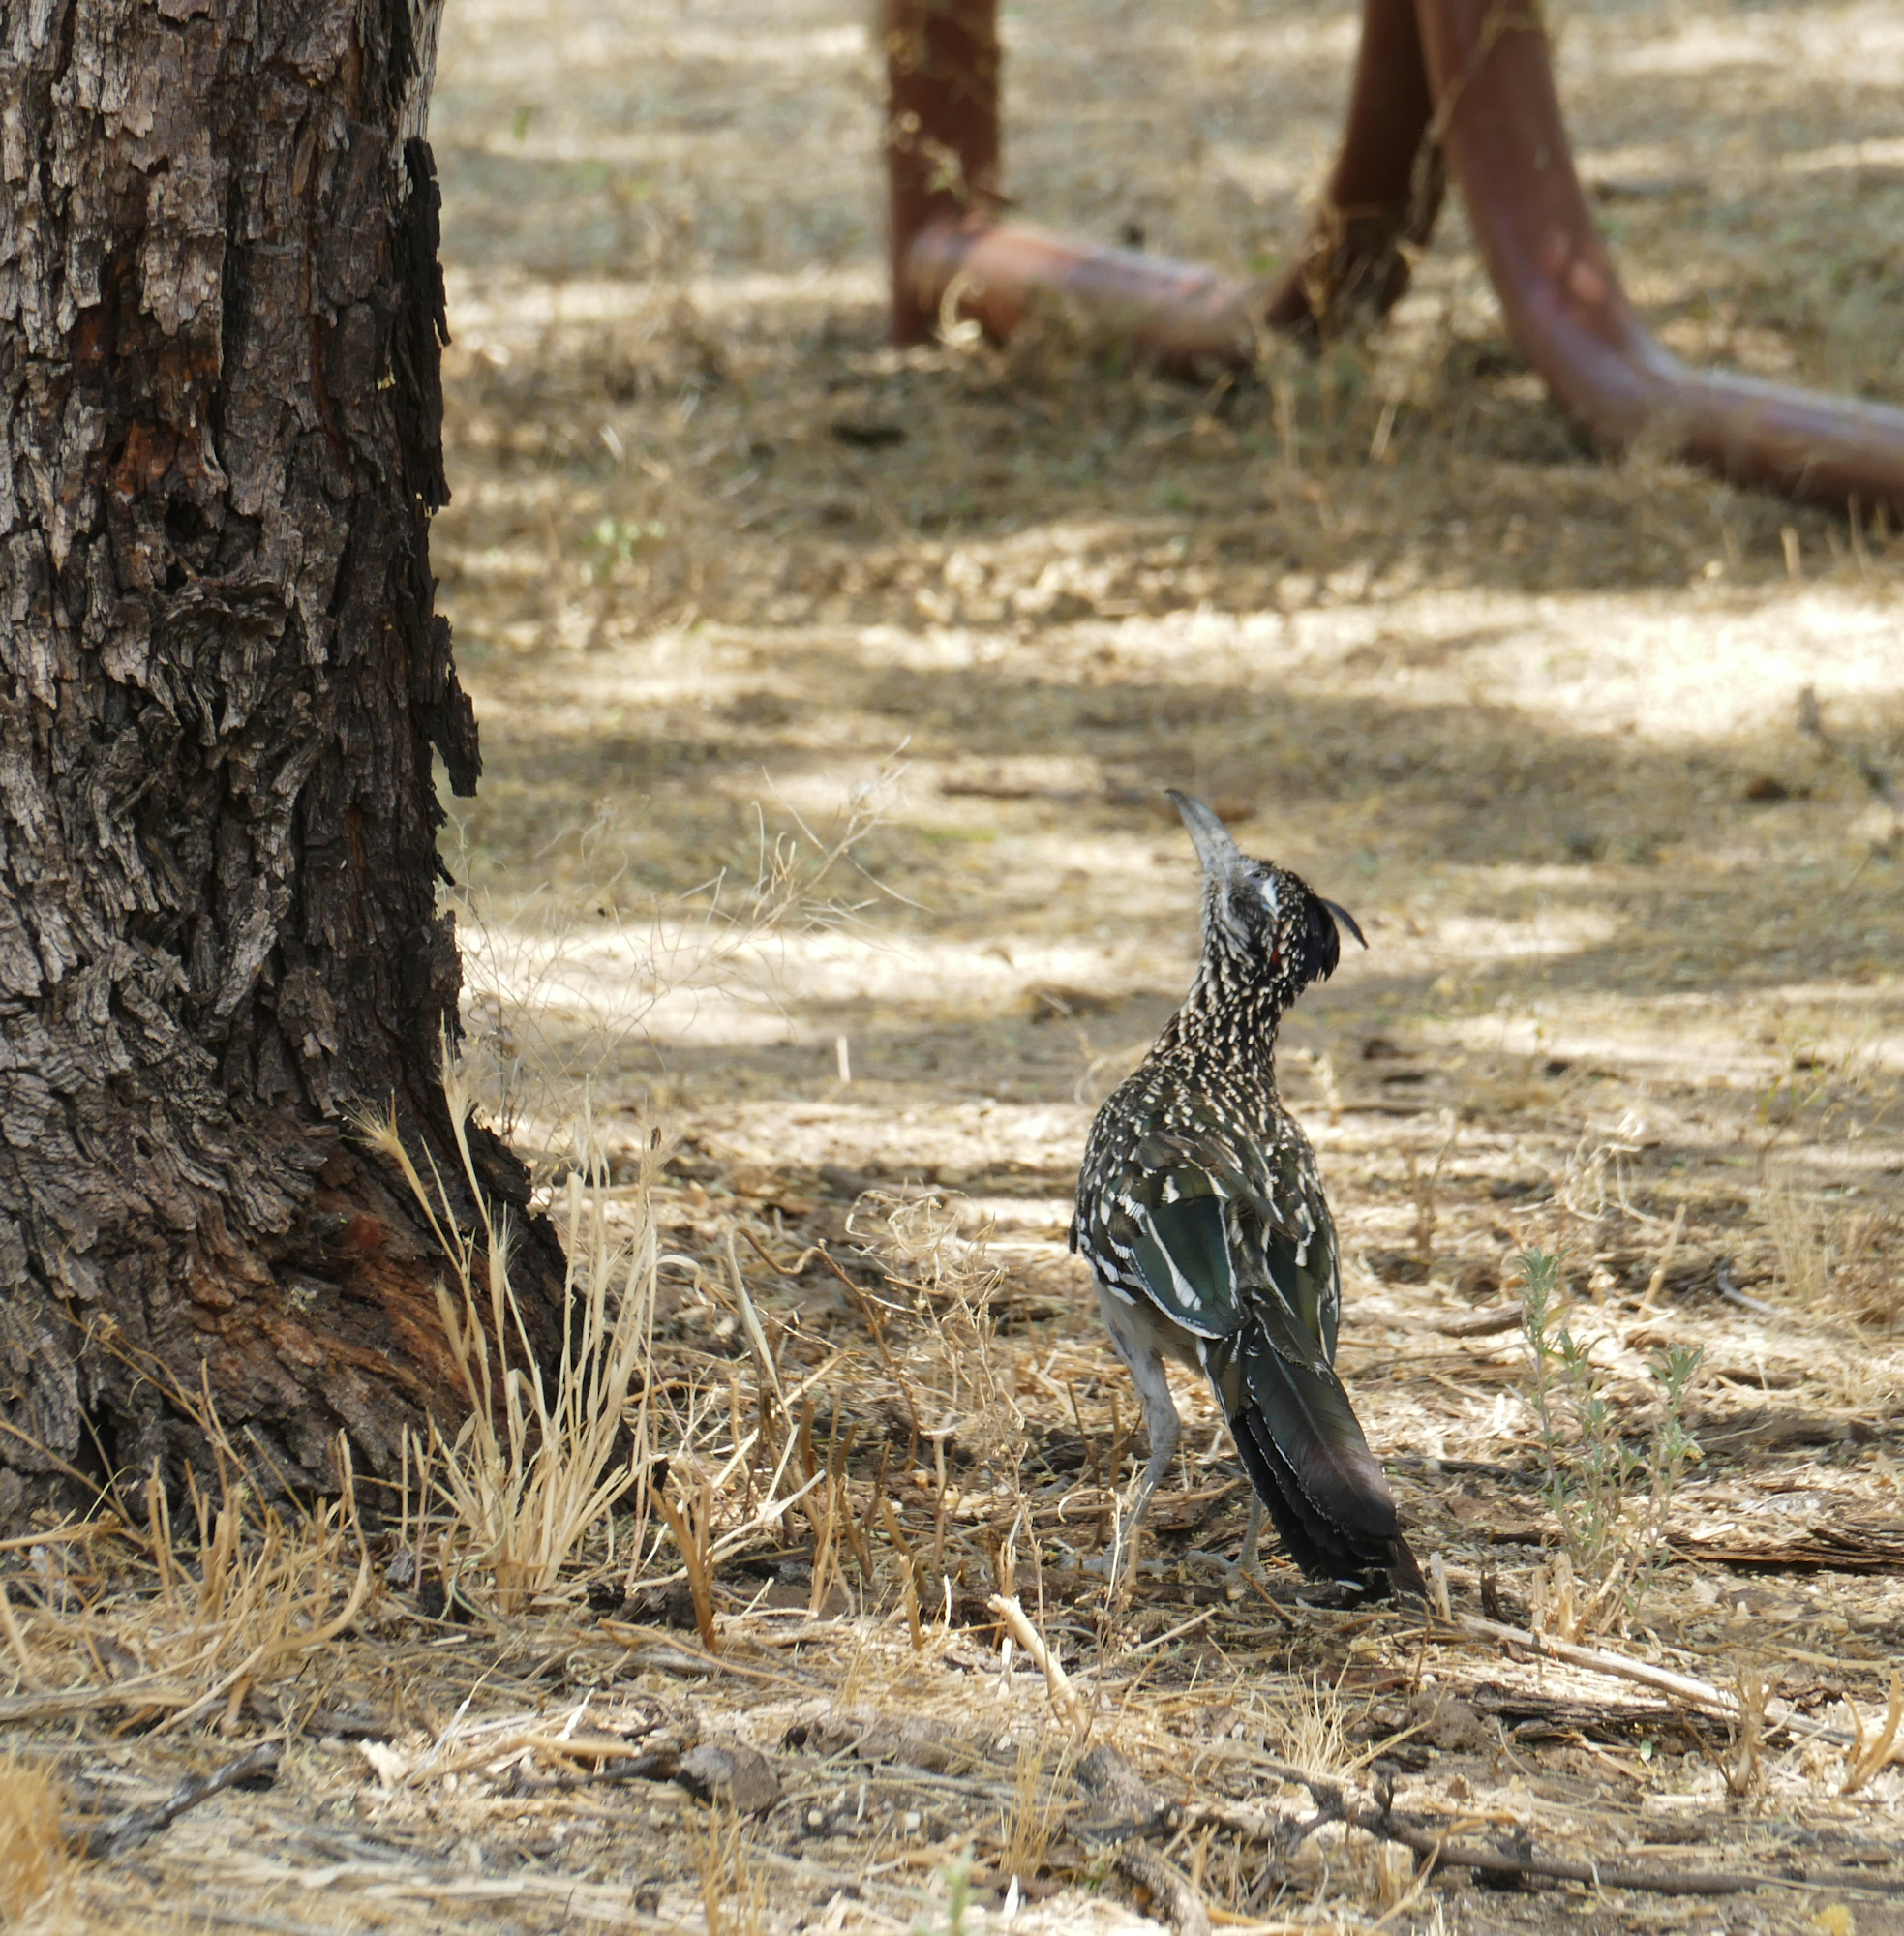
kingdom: Animalia
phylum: Chordata
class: Aves
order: Cuculiformes
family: Cuculidae
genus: Geococcyx
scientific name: Geococcyx californianus
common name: Greater roadrunner
